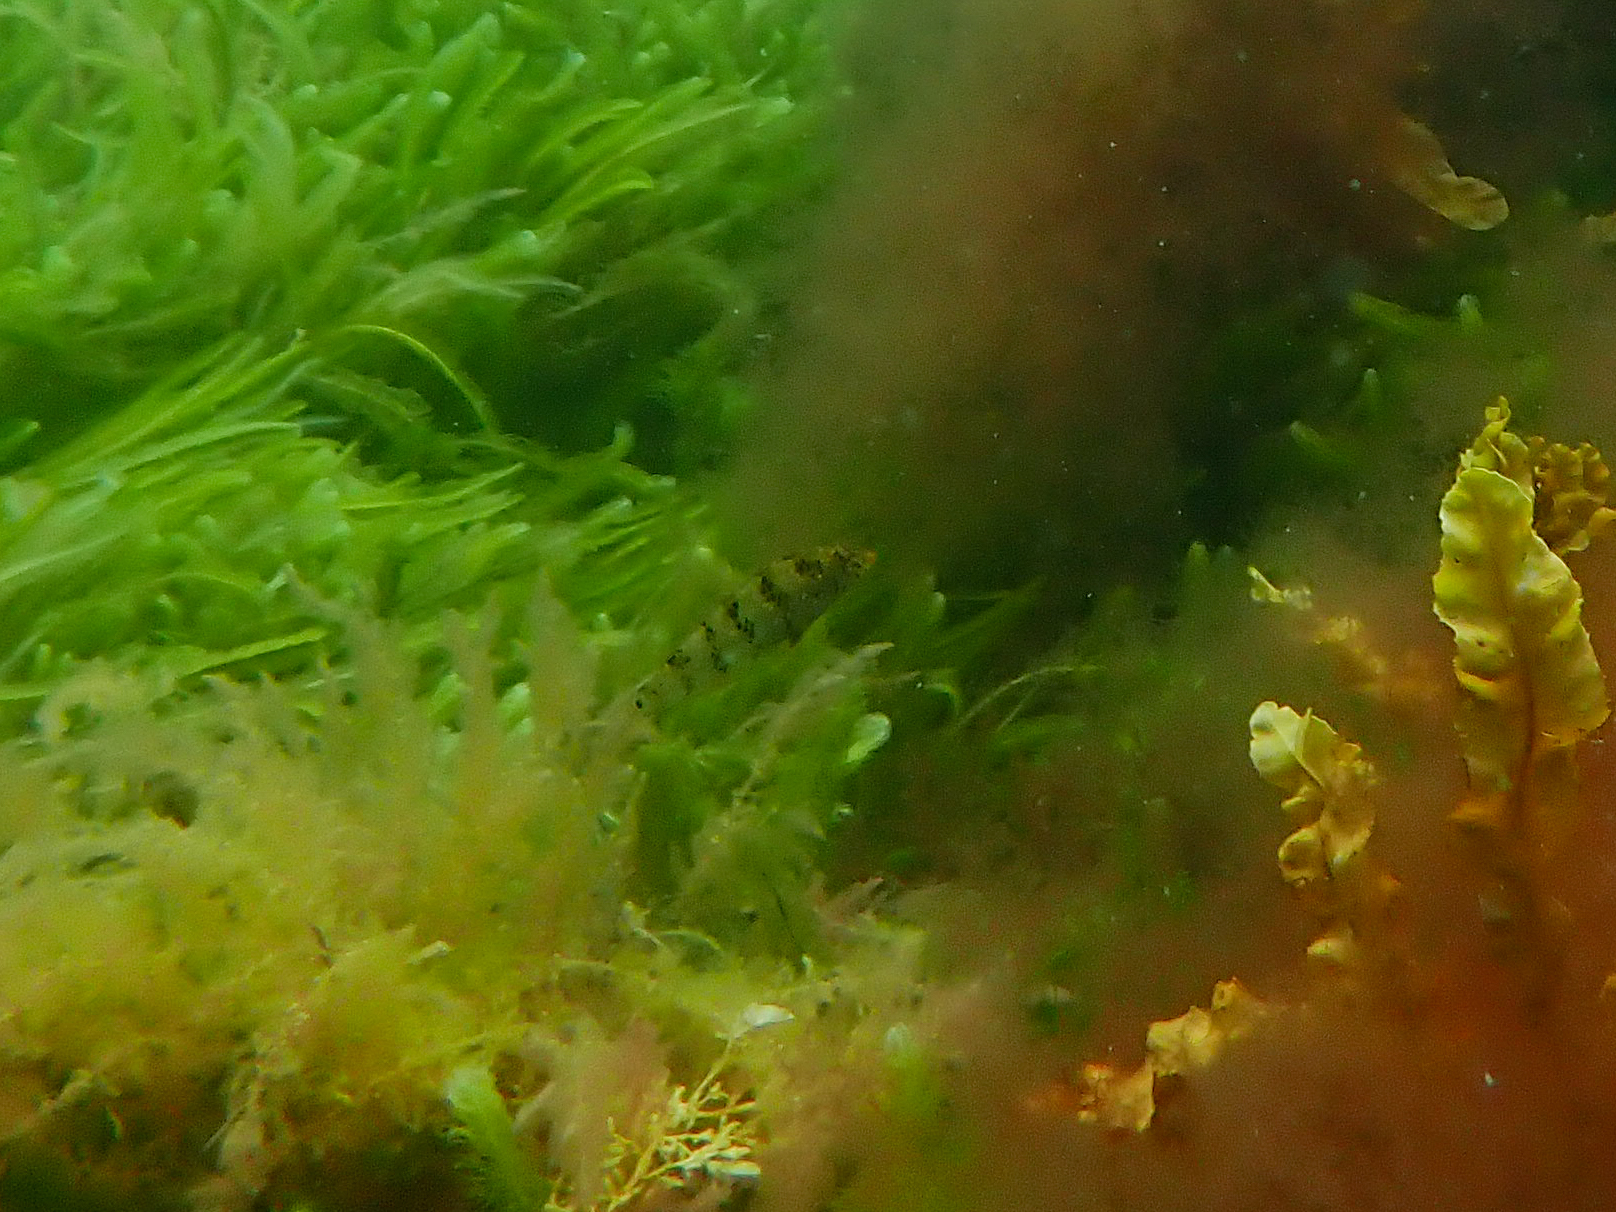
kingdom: Animalia
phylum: Chordata
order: Perciformes
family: Labridae
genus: Dotalabrus
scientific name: Dotalabrus aurantiacus
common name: Pretty polly
